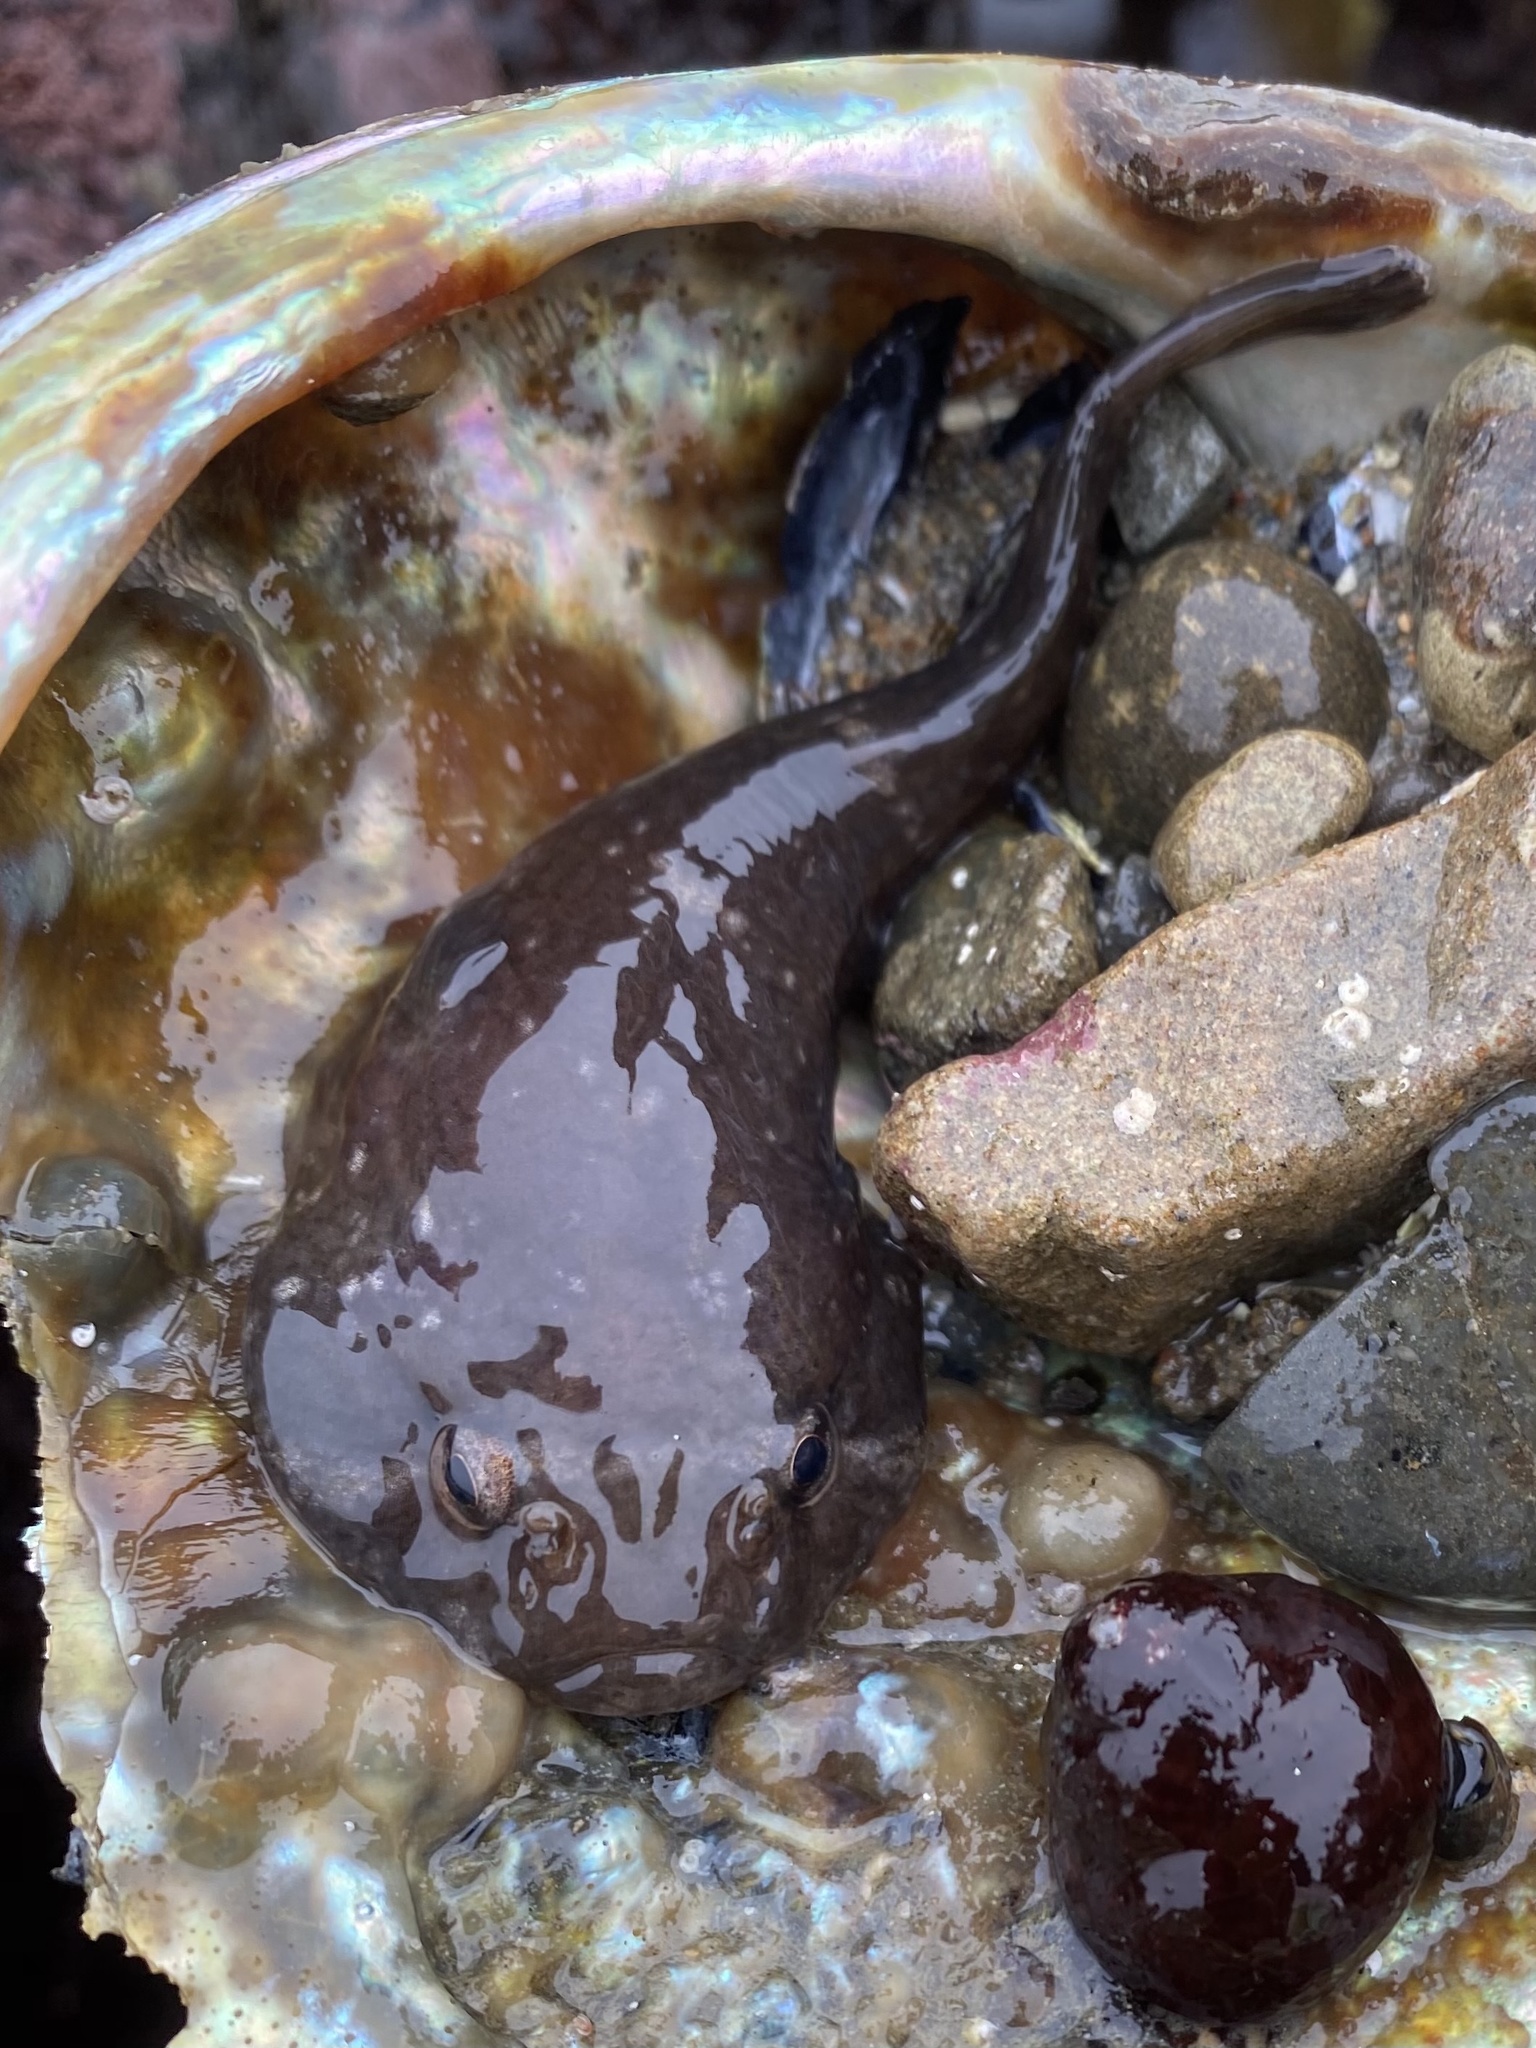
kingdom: Animalia
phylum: Chordata
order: Gobiesociformes
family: Gobiesocidae
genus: Gobiesox
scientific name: Gobiesox maeandricus
